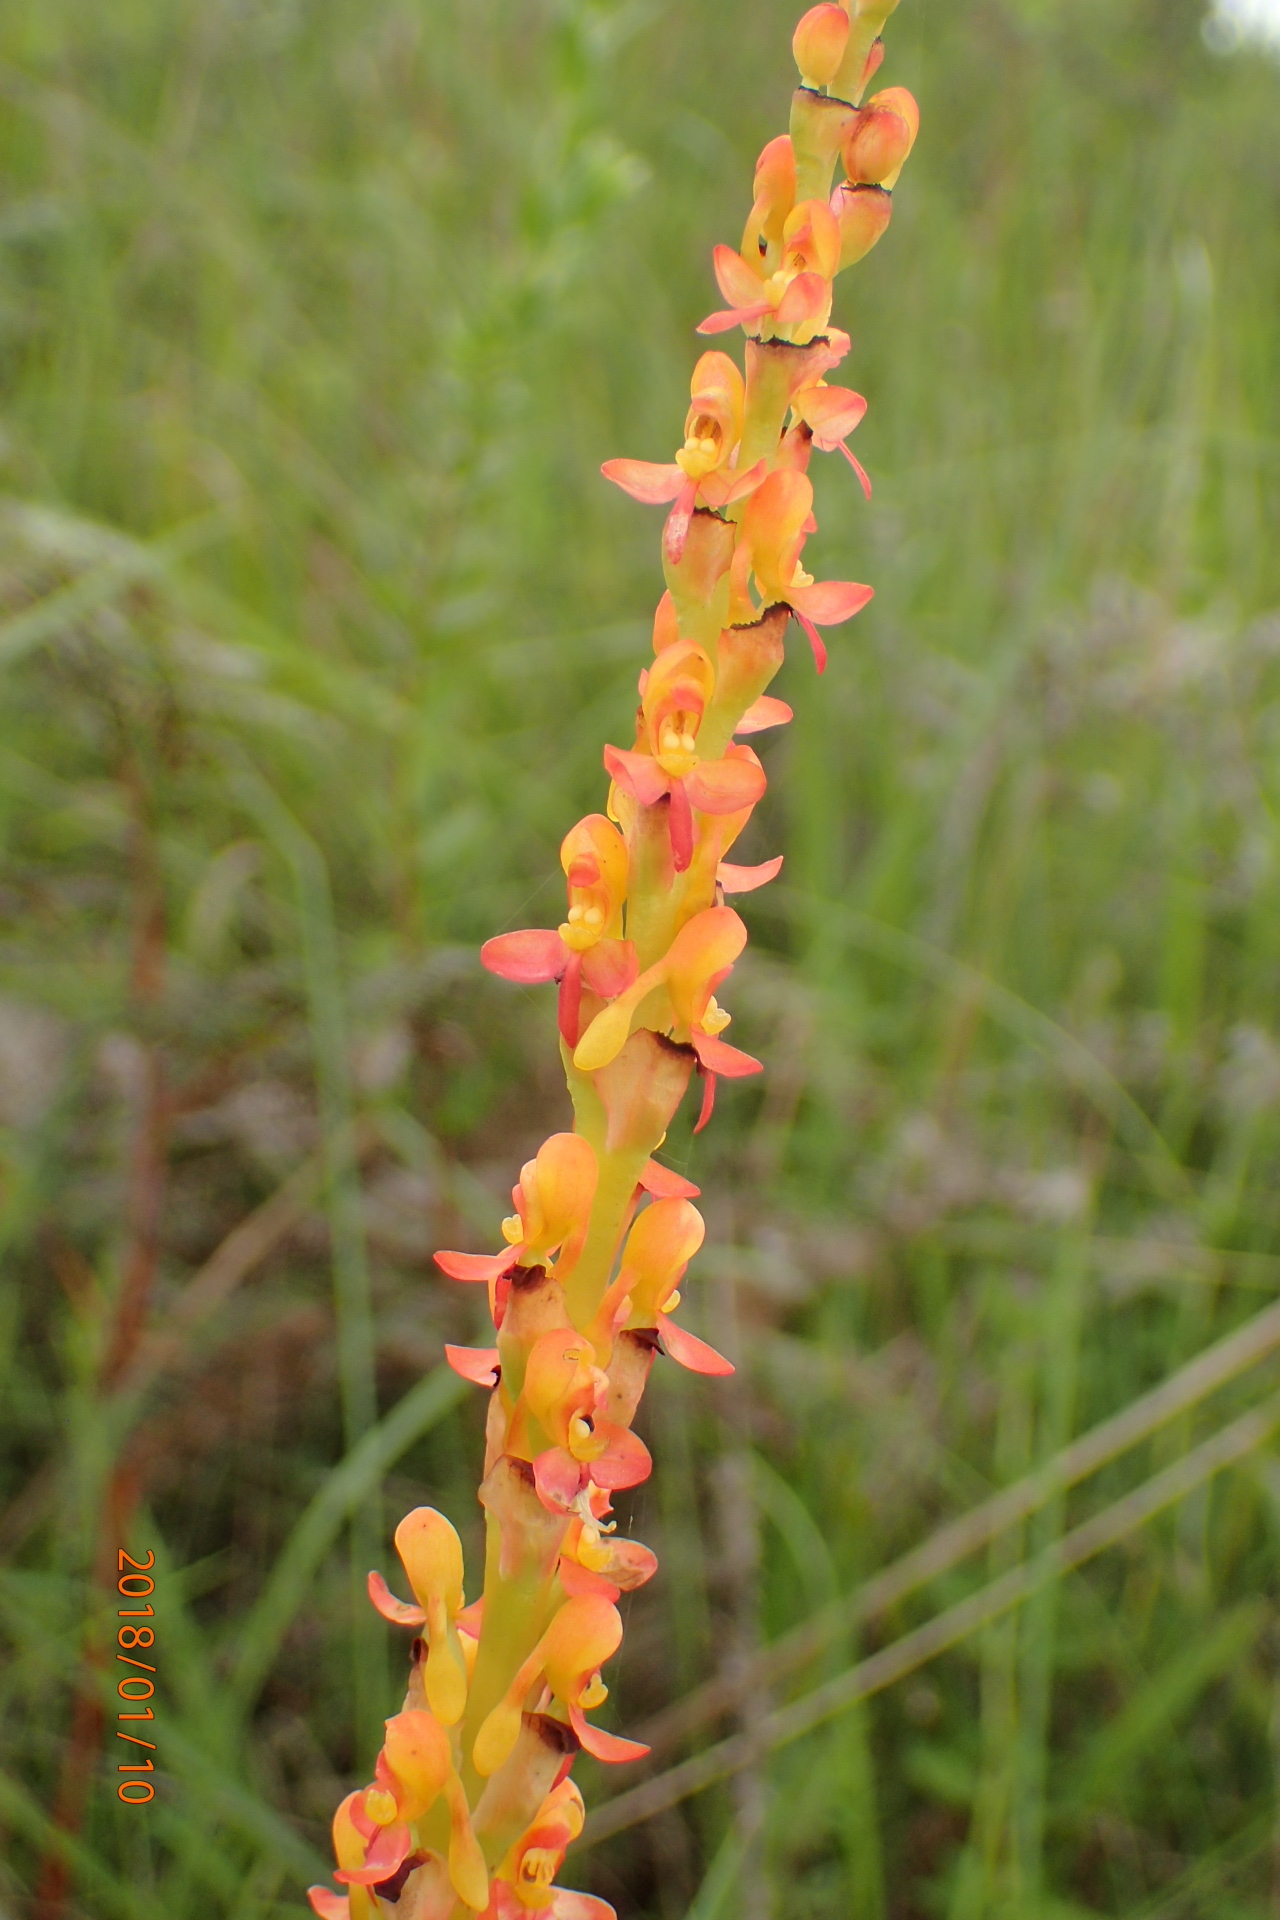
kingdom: Plantae
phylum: Tracheophyta
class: Liliopsida
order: Asparagales
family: Orchidaceae
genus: Disa
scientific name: Disa chrysostachya
